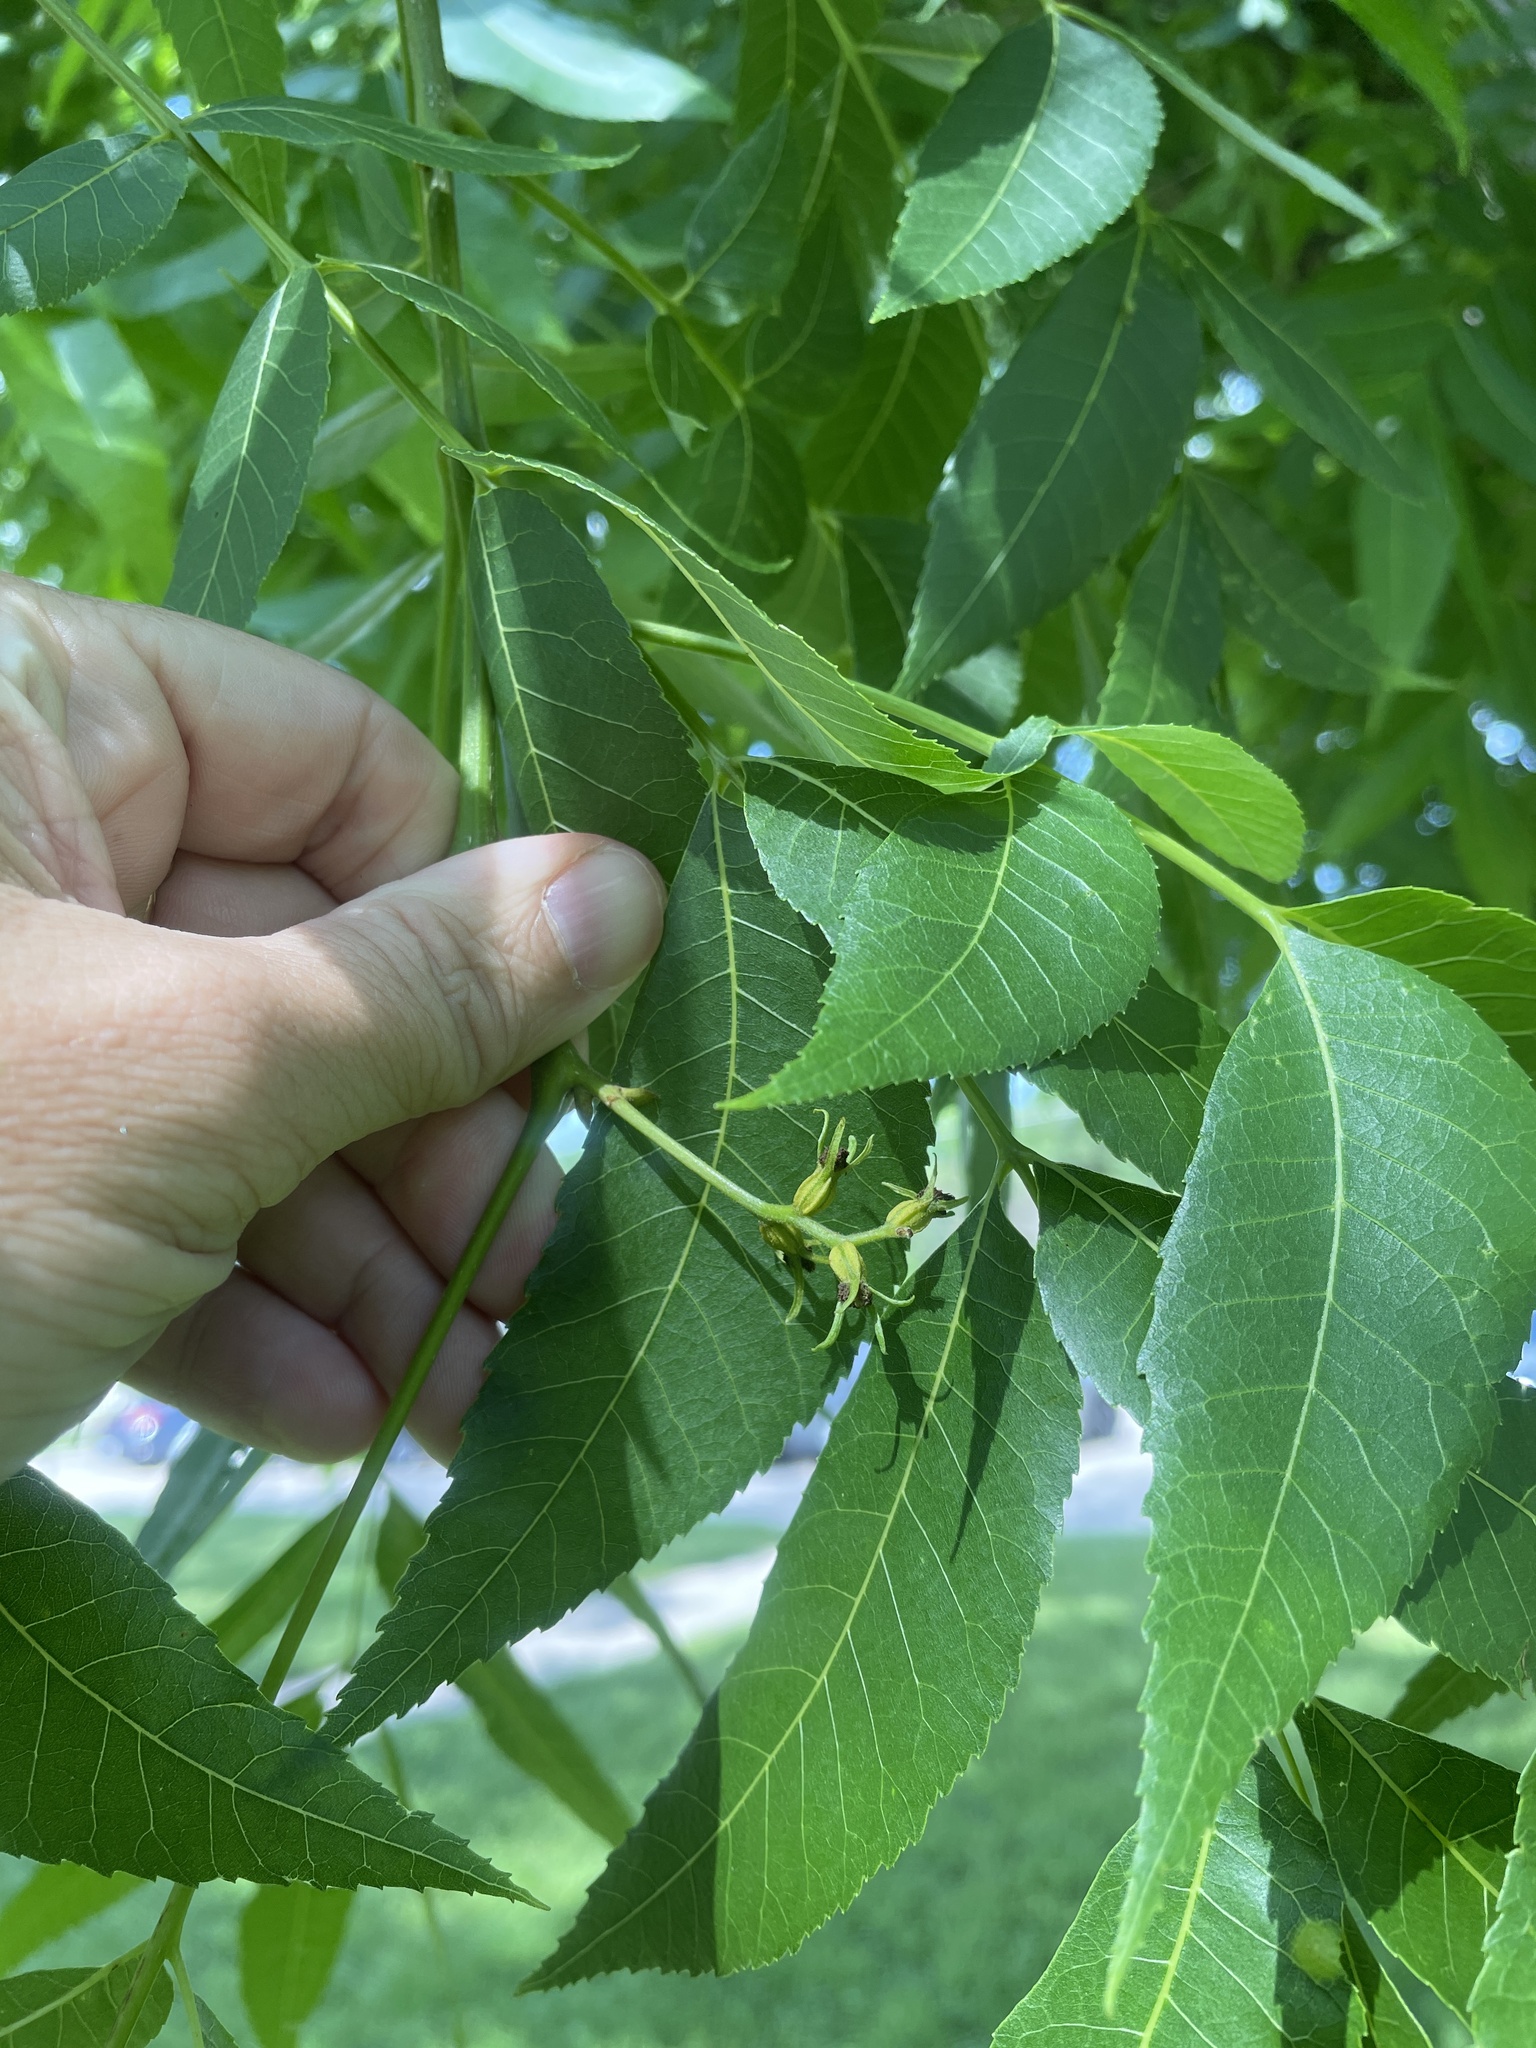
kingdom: Plantae
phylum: Tracheophyta
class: Magnoliopsida
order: Fagales
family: Juglandaceae
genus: Carya
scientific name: Carya illinoinensis
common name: Pecan
